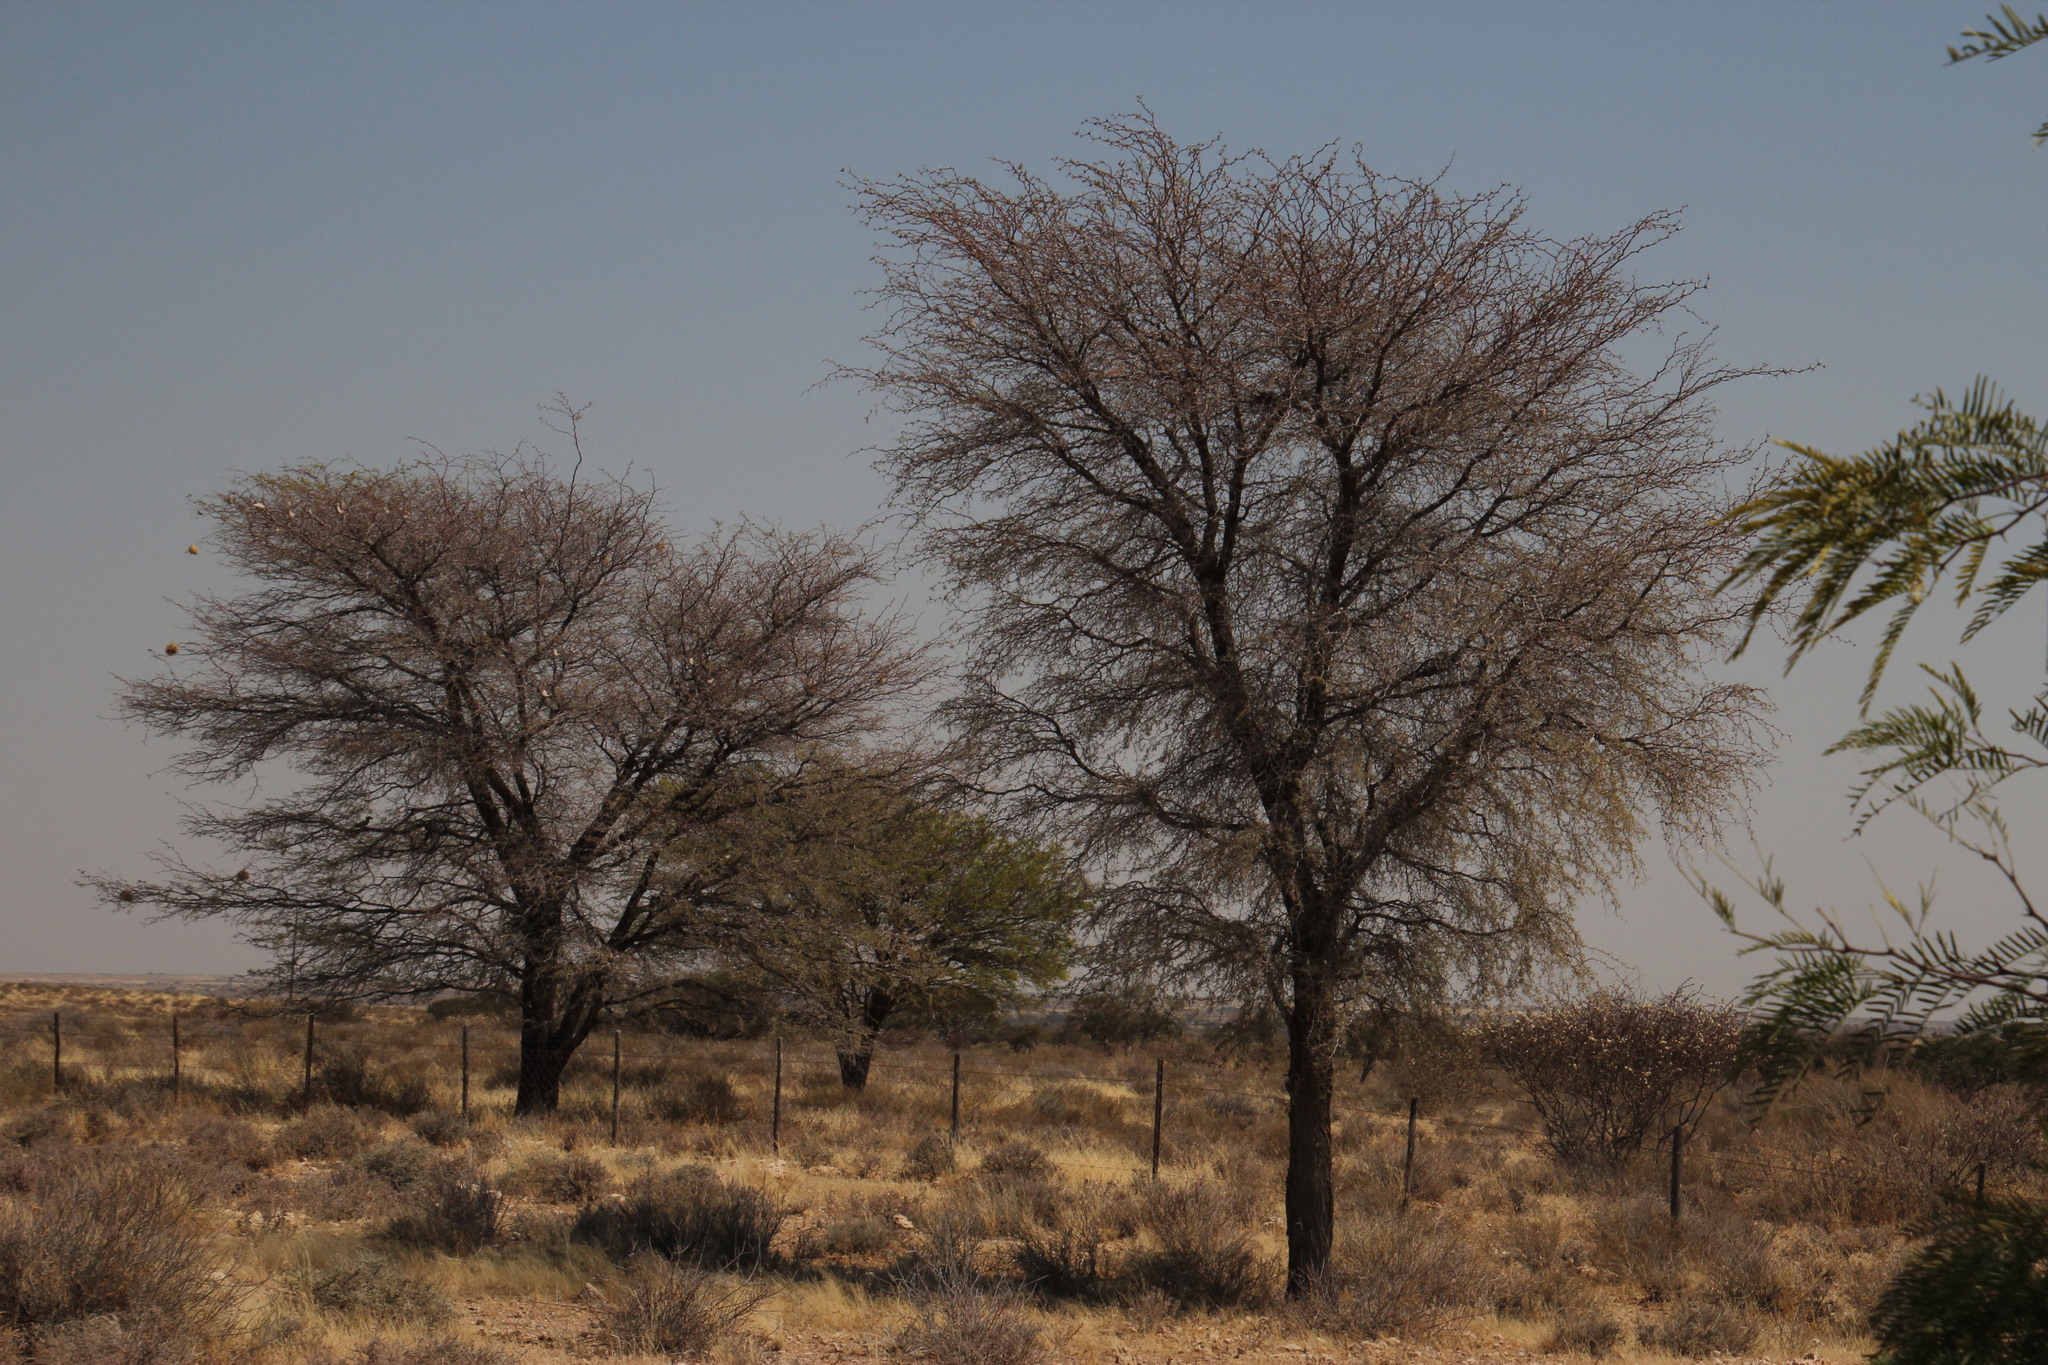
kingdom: Plantae
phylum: Tracheophyta
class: Magnoliopsida
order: Fabales
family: Fabaceae
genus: Vachellia
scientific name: Vachellia erioloba
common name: Camel thorn
